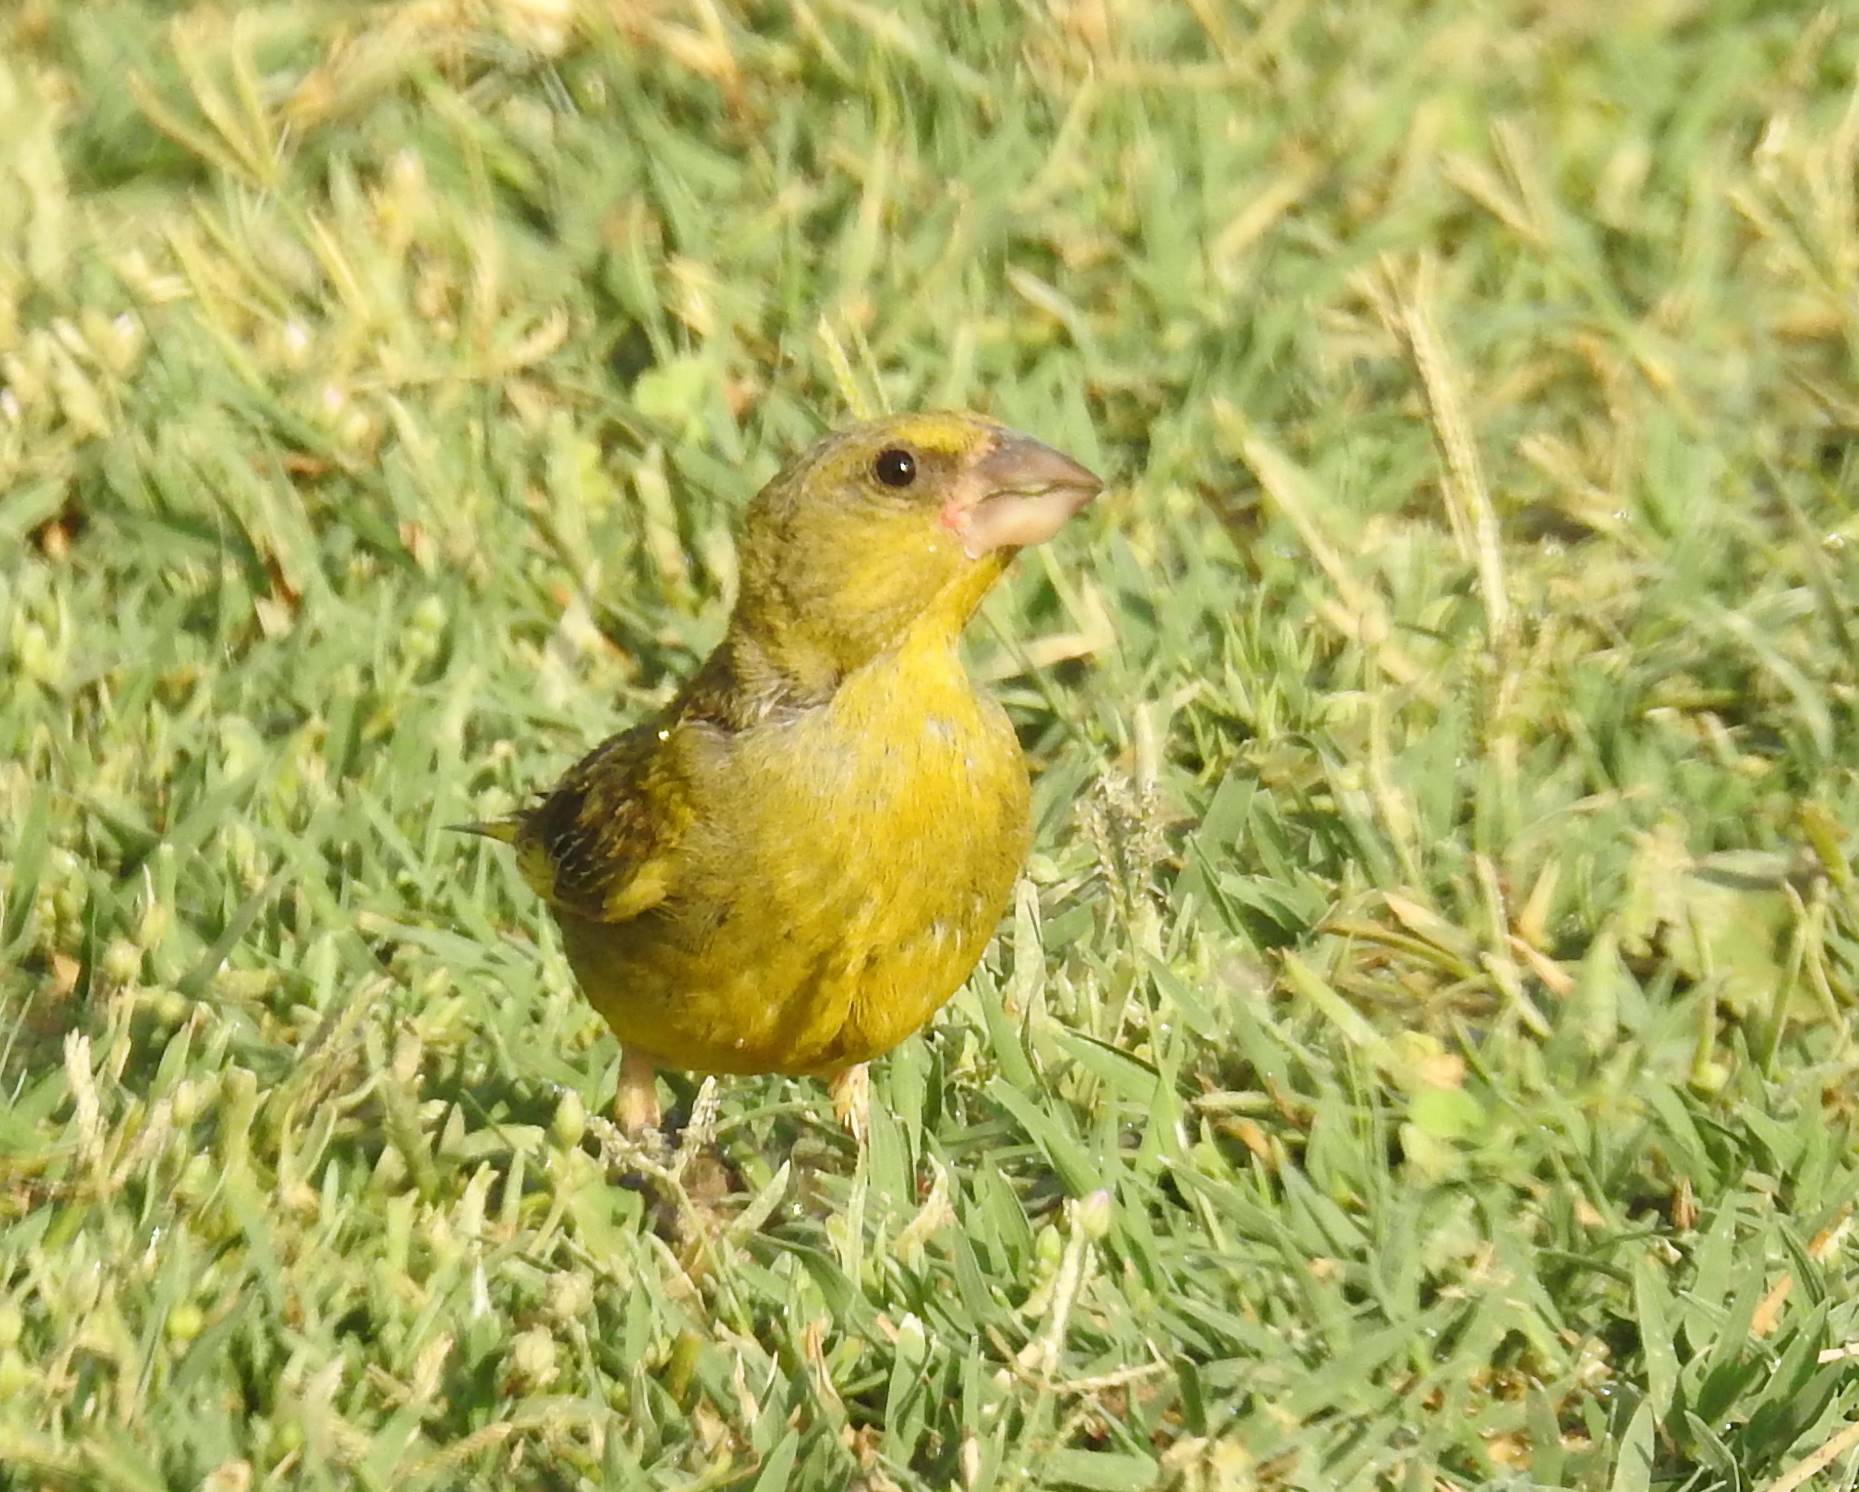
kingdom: Plantae
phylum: Tracheophyta
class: Liliopsida
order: Poales
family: Poaceae
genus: Chloris
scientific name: Chloris chloris
